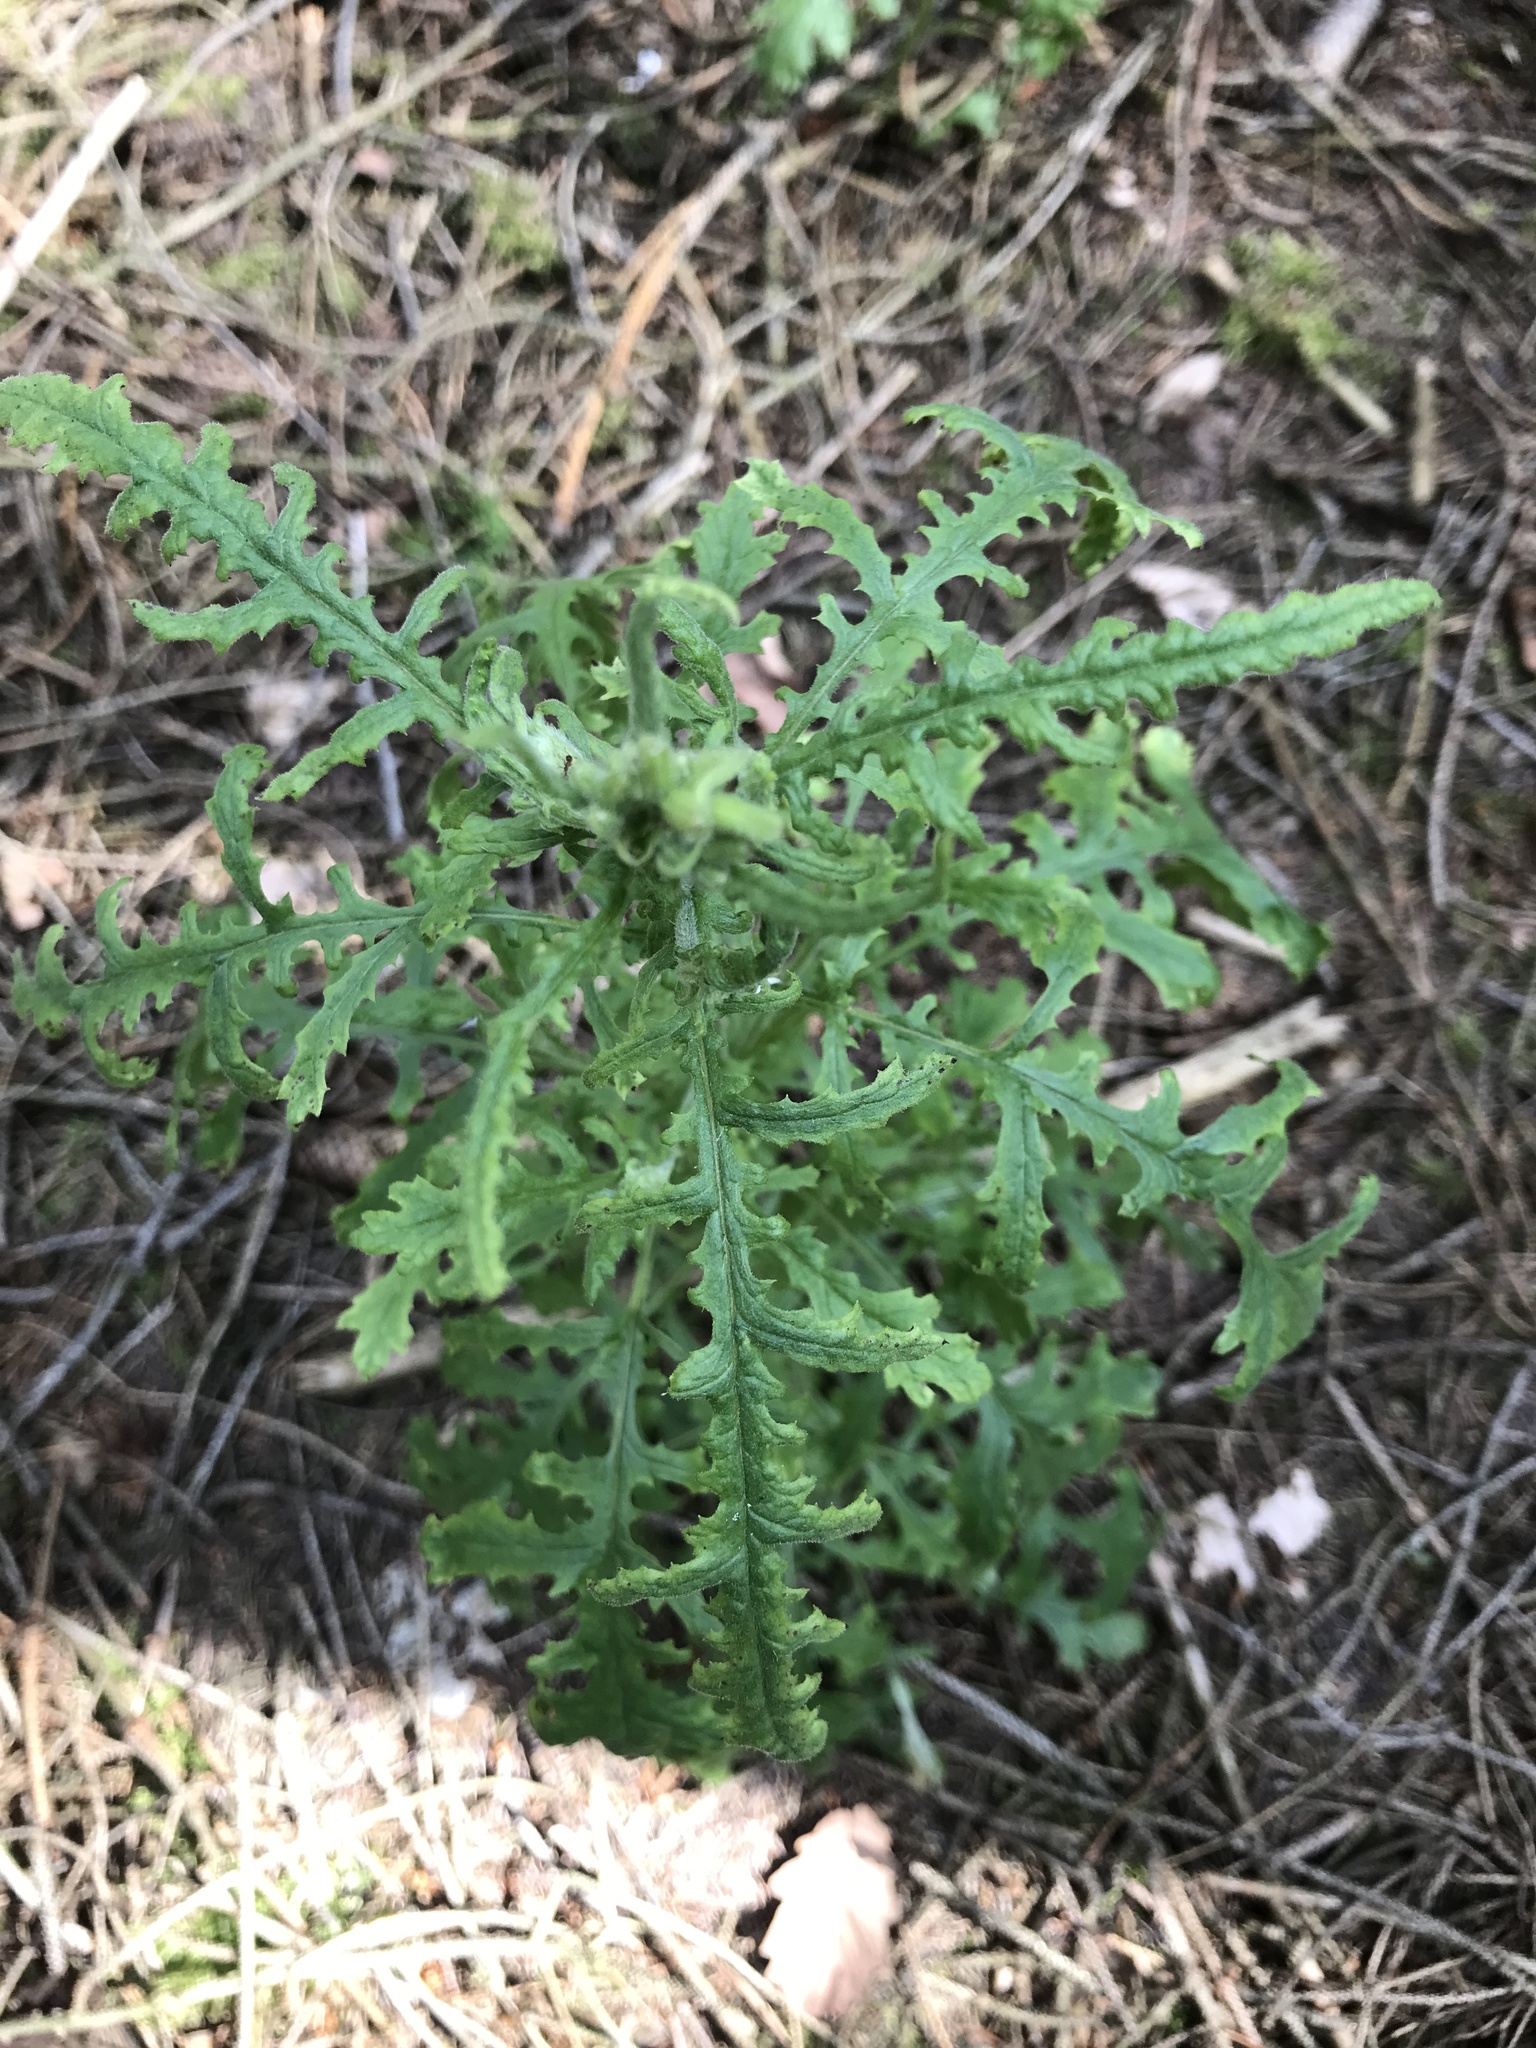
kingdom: Plantae
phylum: Tracheophyta
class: Magnoliopsida
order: Asterales
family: Asteraceae
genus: Senecio
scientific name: Senecio sylvaticus
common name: Woodland ragwort
